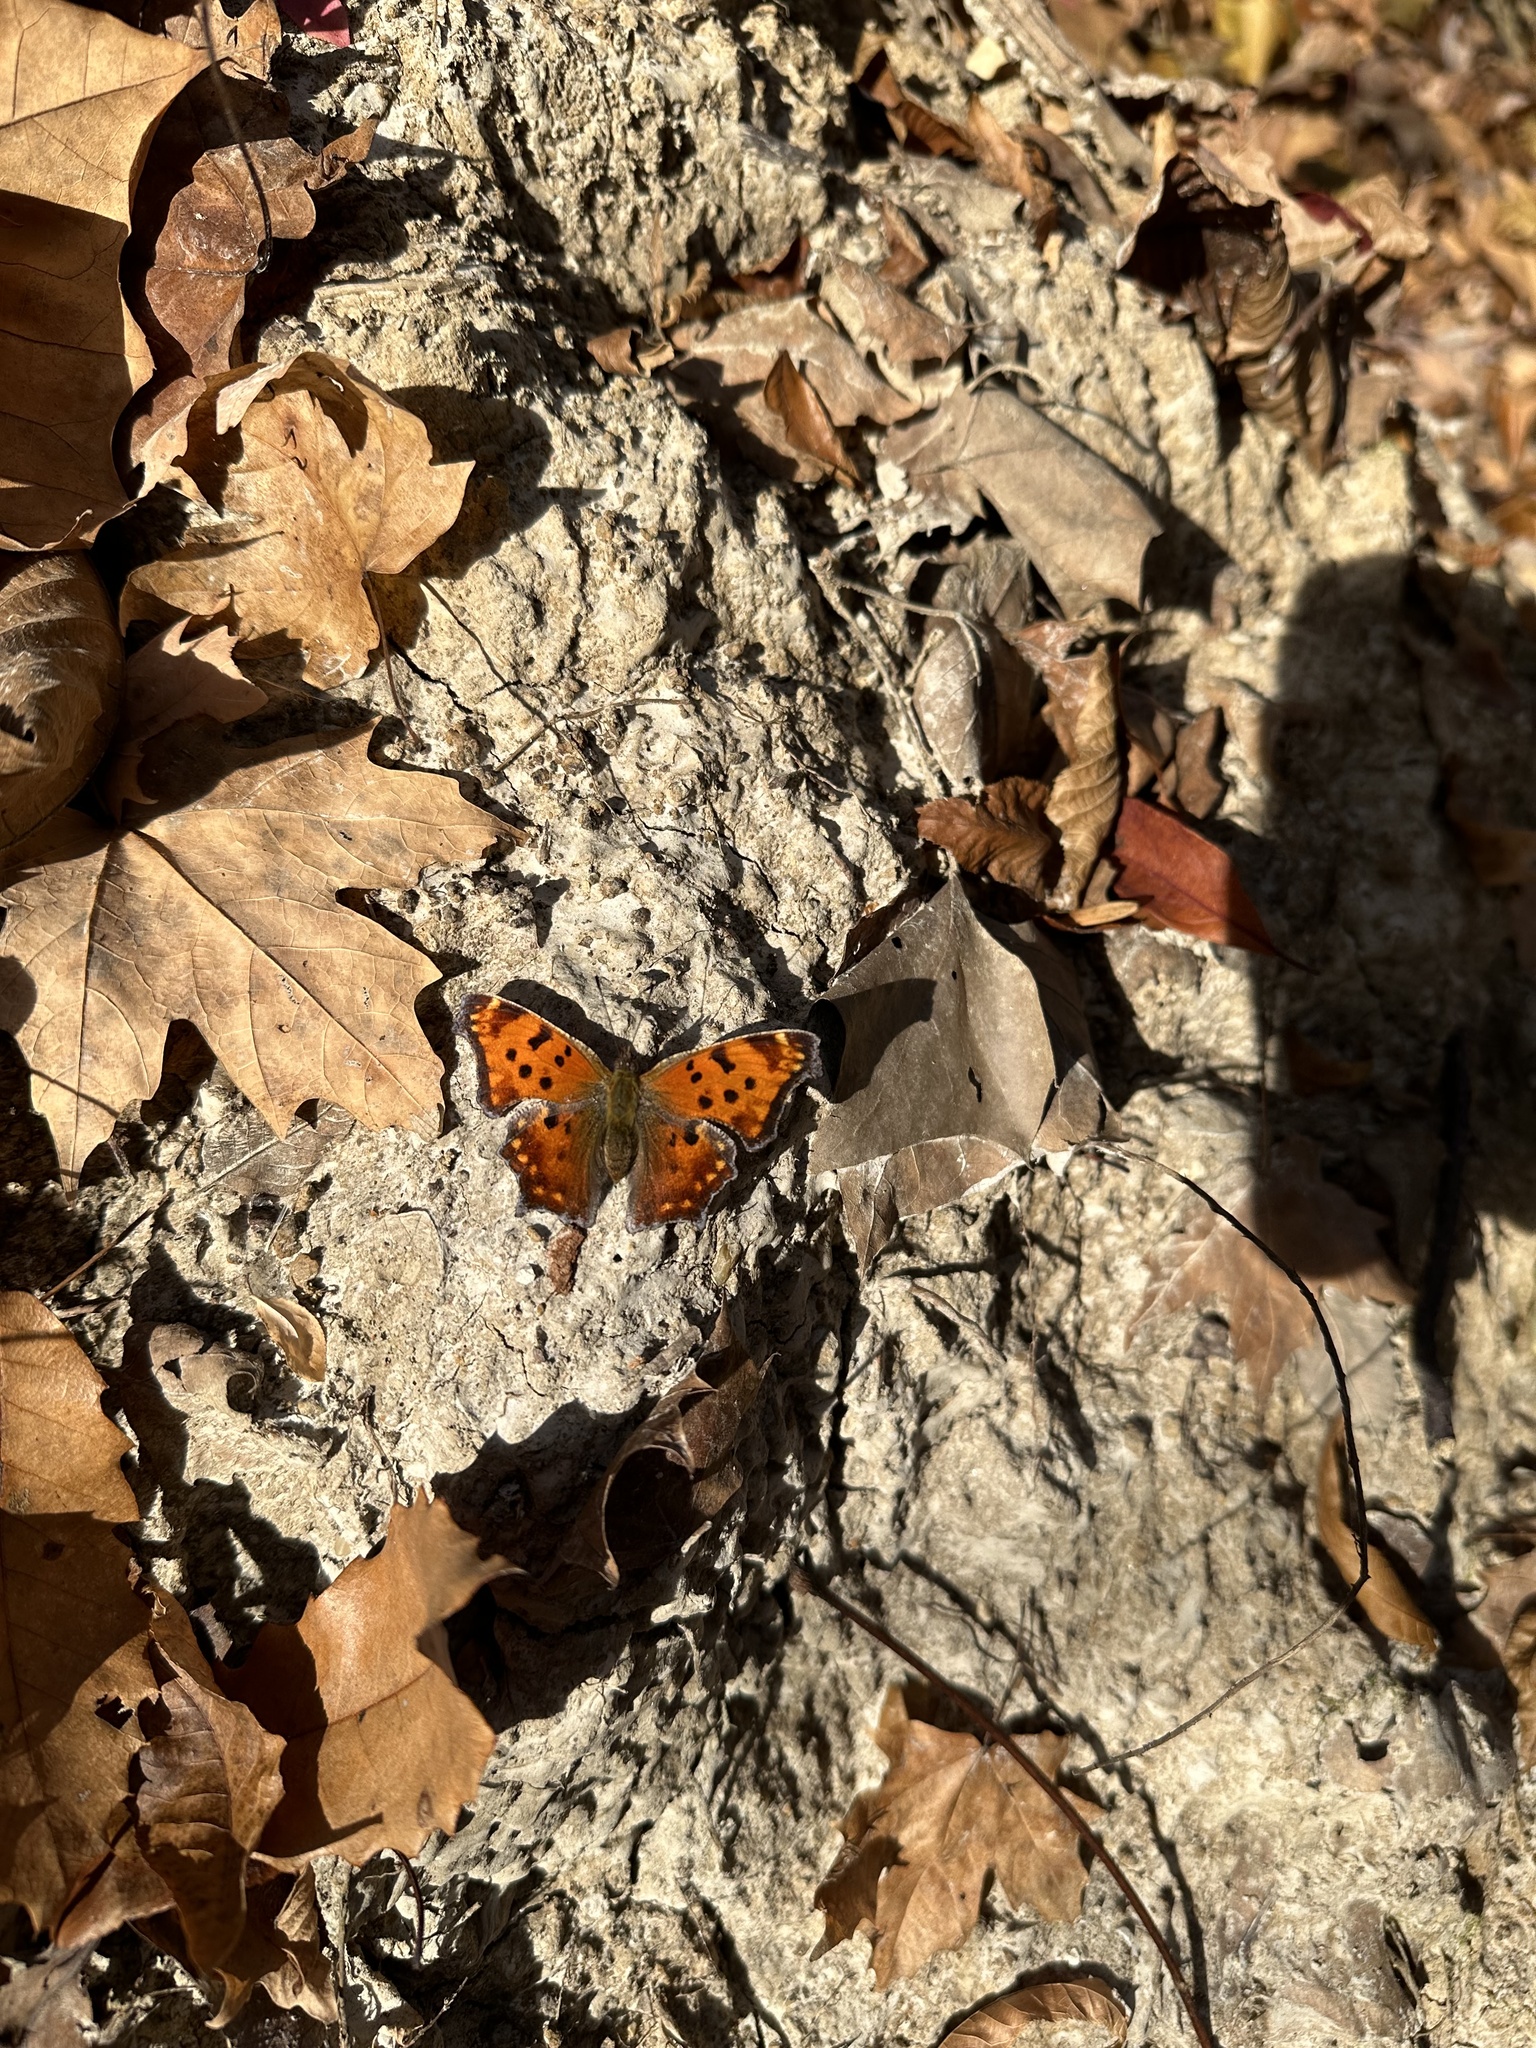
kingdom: Animalia
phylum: Arthropoda
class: Insecta
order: Lepidoptera
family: Nymphalidae
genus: Polygonia
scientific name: Polygonia comma
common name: Eastern comma
